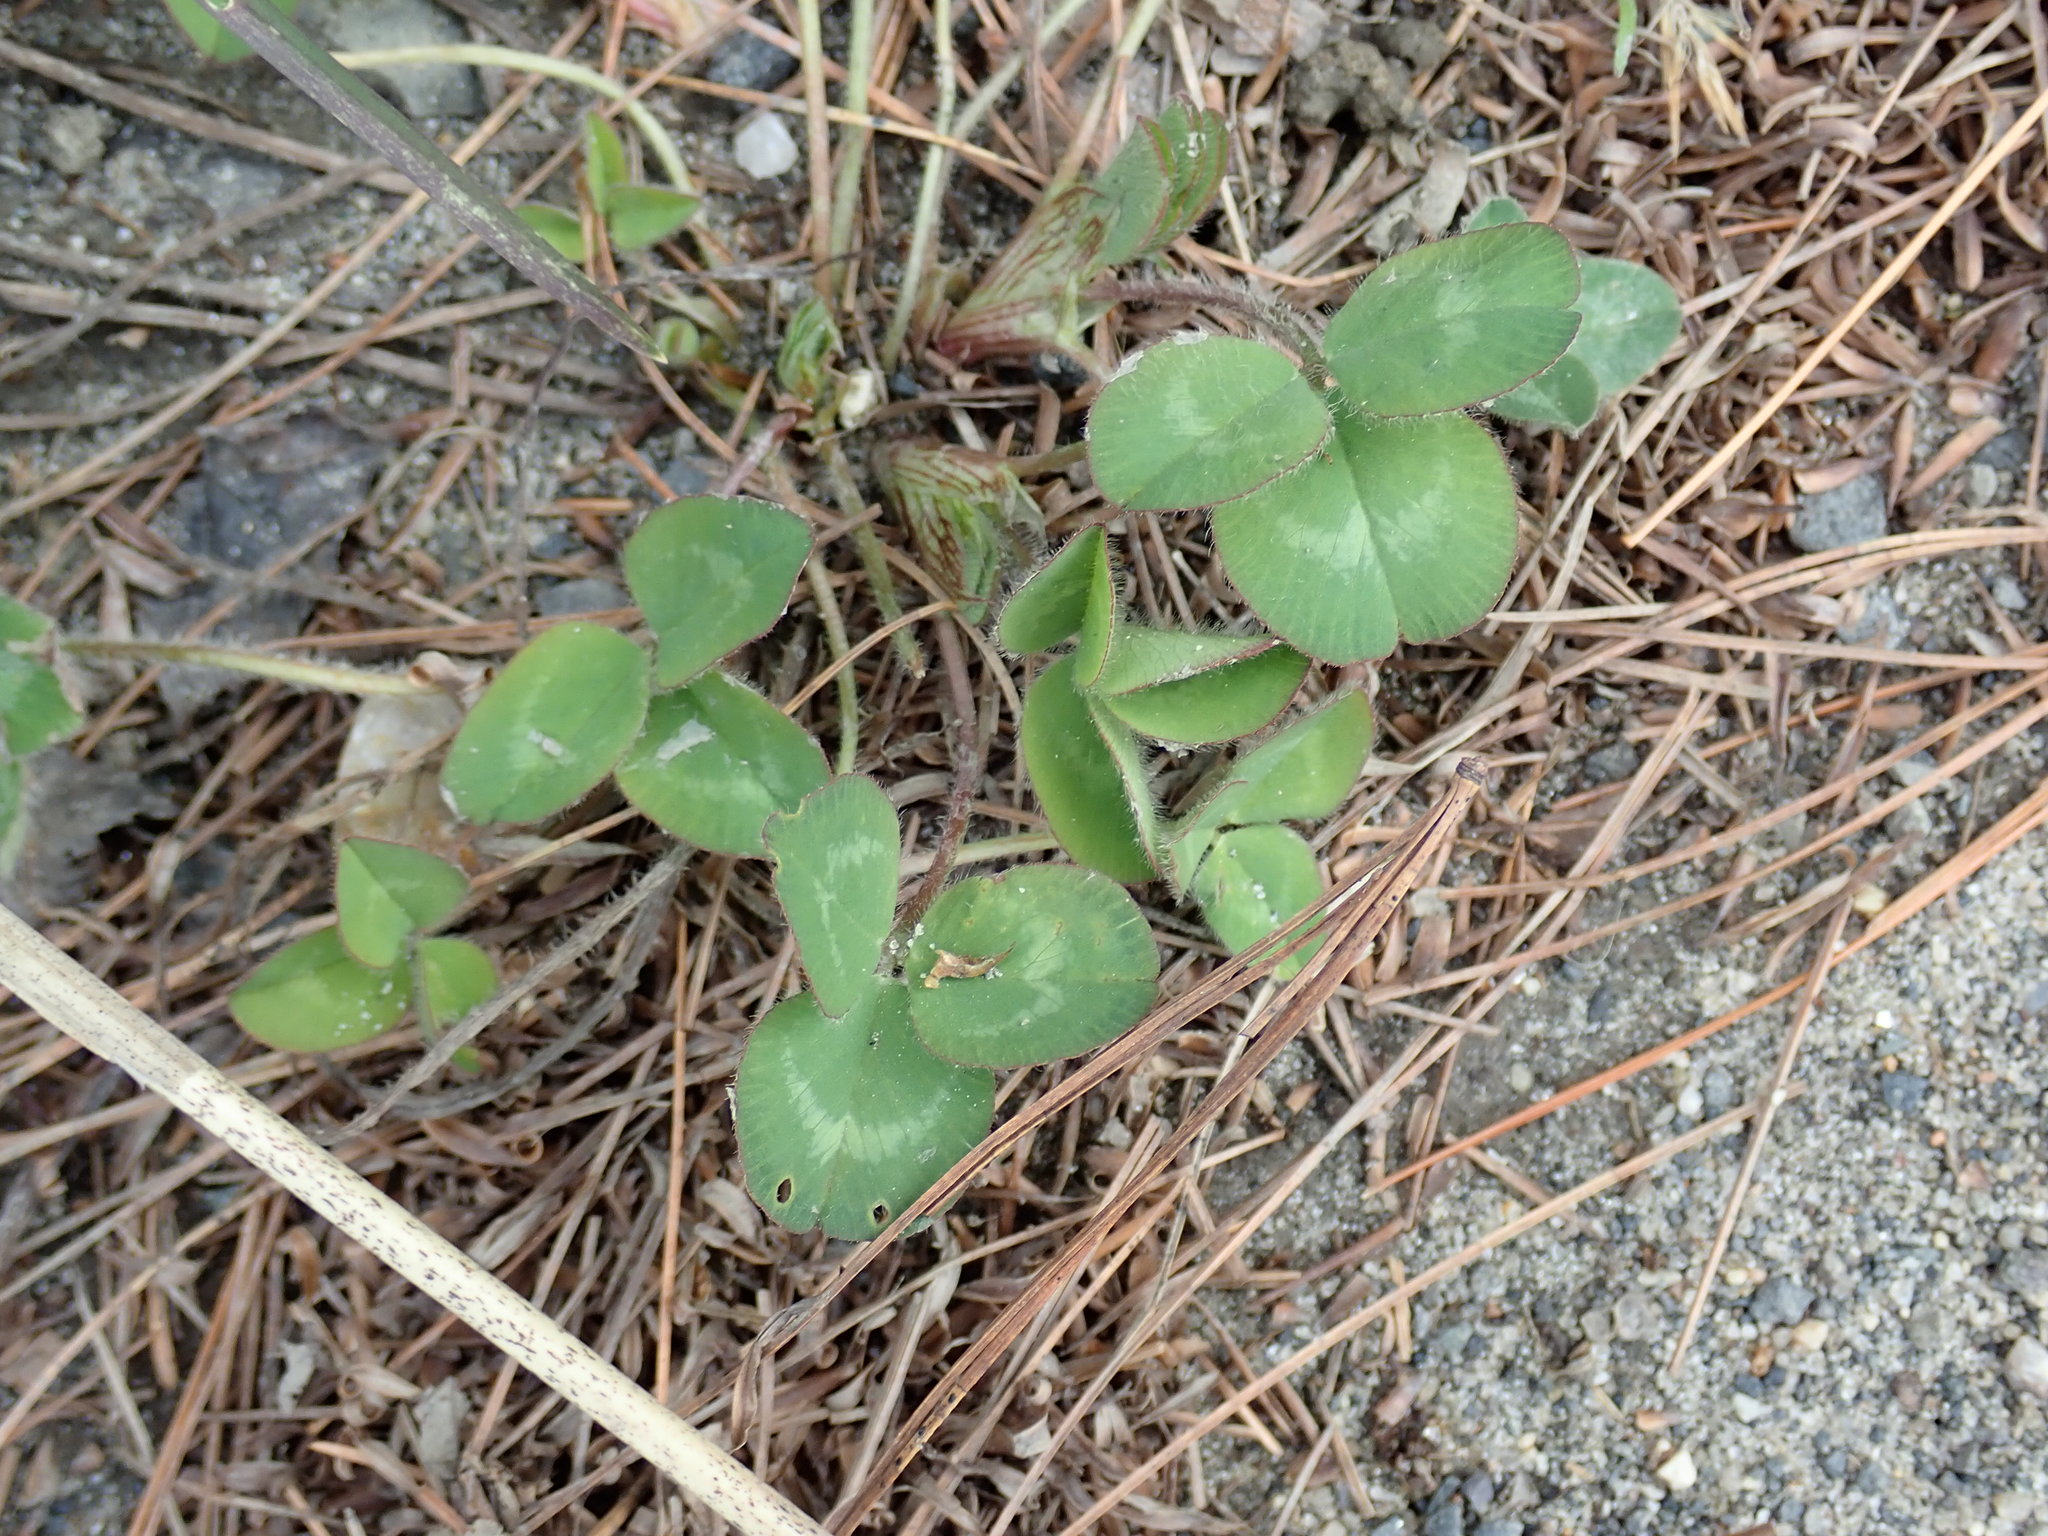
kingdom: Plantae
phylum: Tracheophyta
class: Magnoliopsida
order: Fabales
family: Fabaceae
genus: Trifolium
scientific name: Trifolium pratense
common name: Red clover
